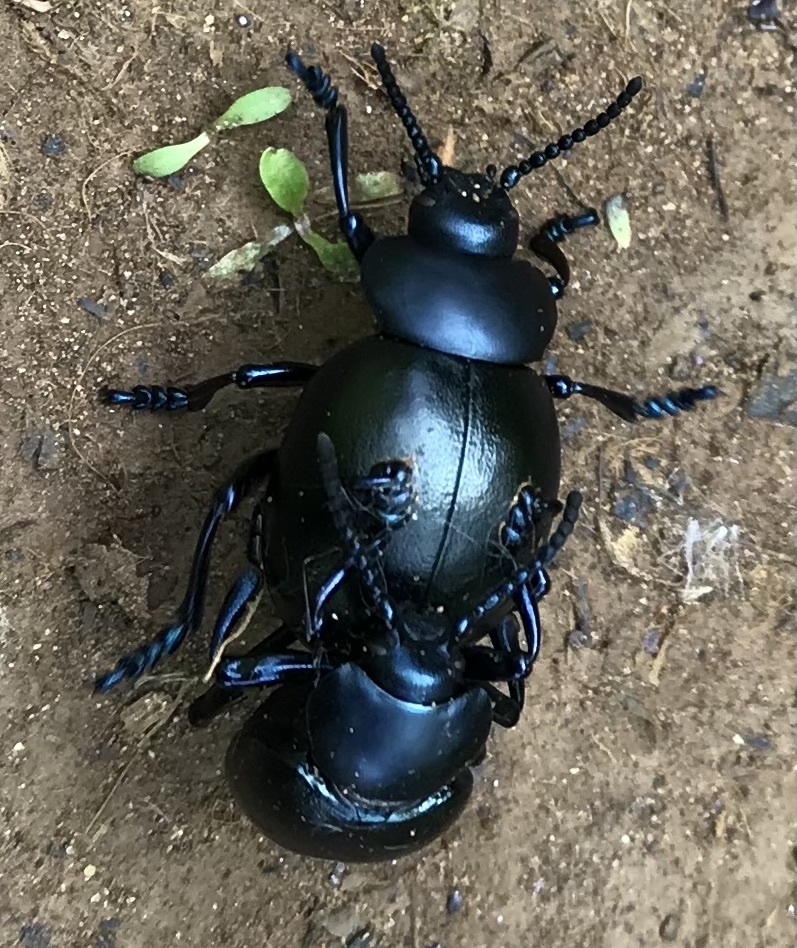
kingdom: Animalia
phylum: Arthropoda
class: Insecta
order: Coleoptera
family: Chrysomelidae
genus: Timarcha
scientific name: Timarcha tenebricosa
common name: Bloody-nosed beetle
